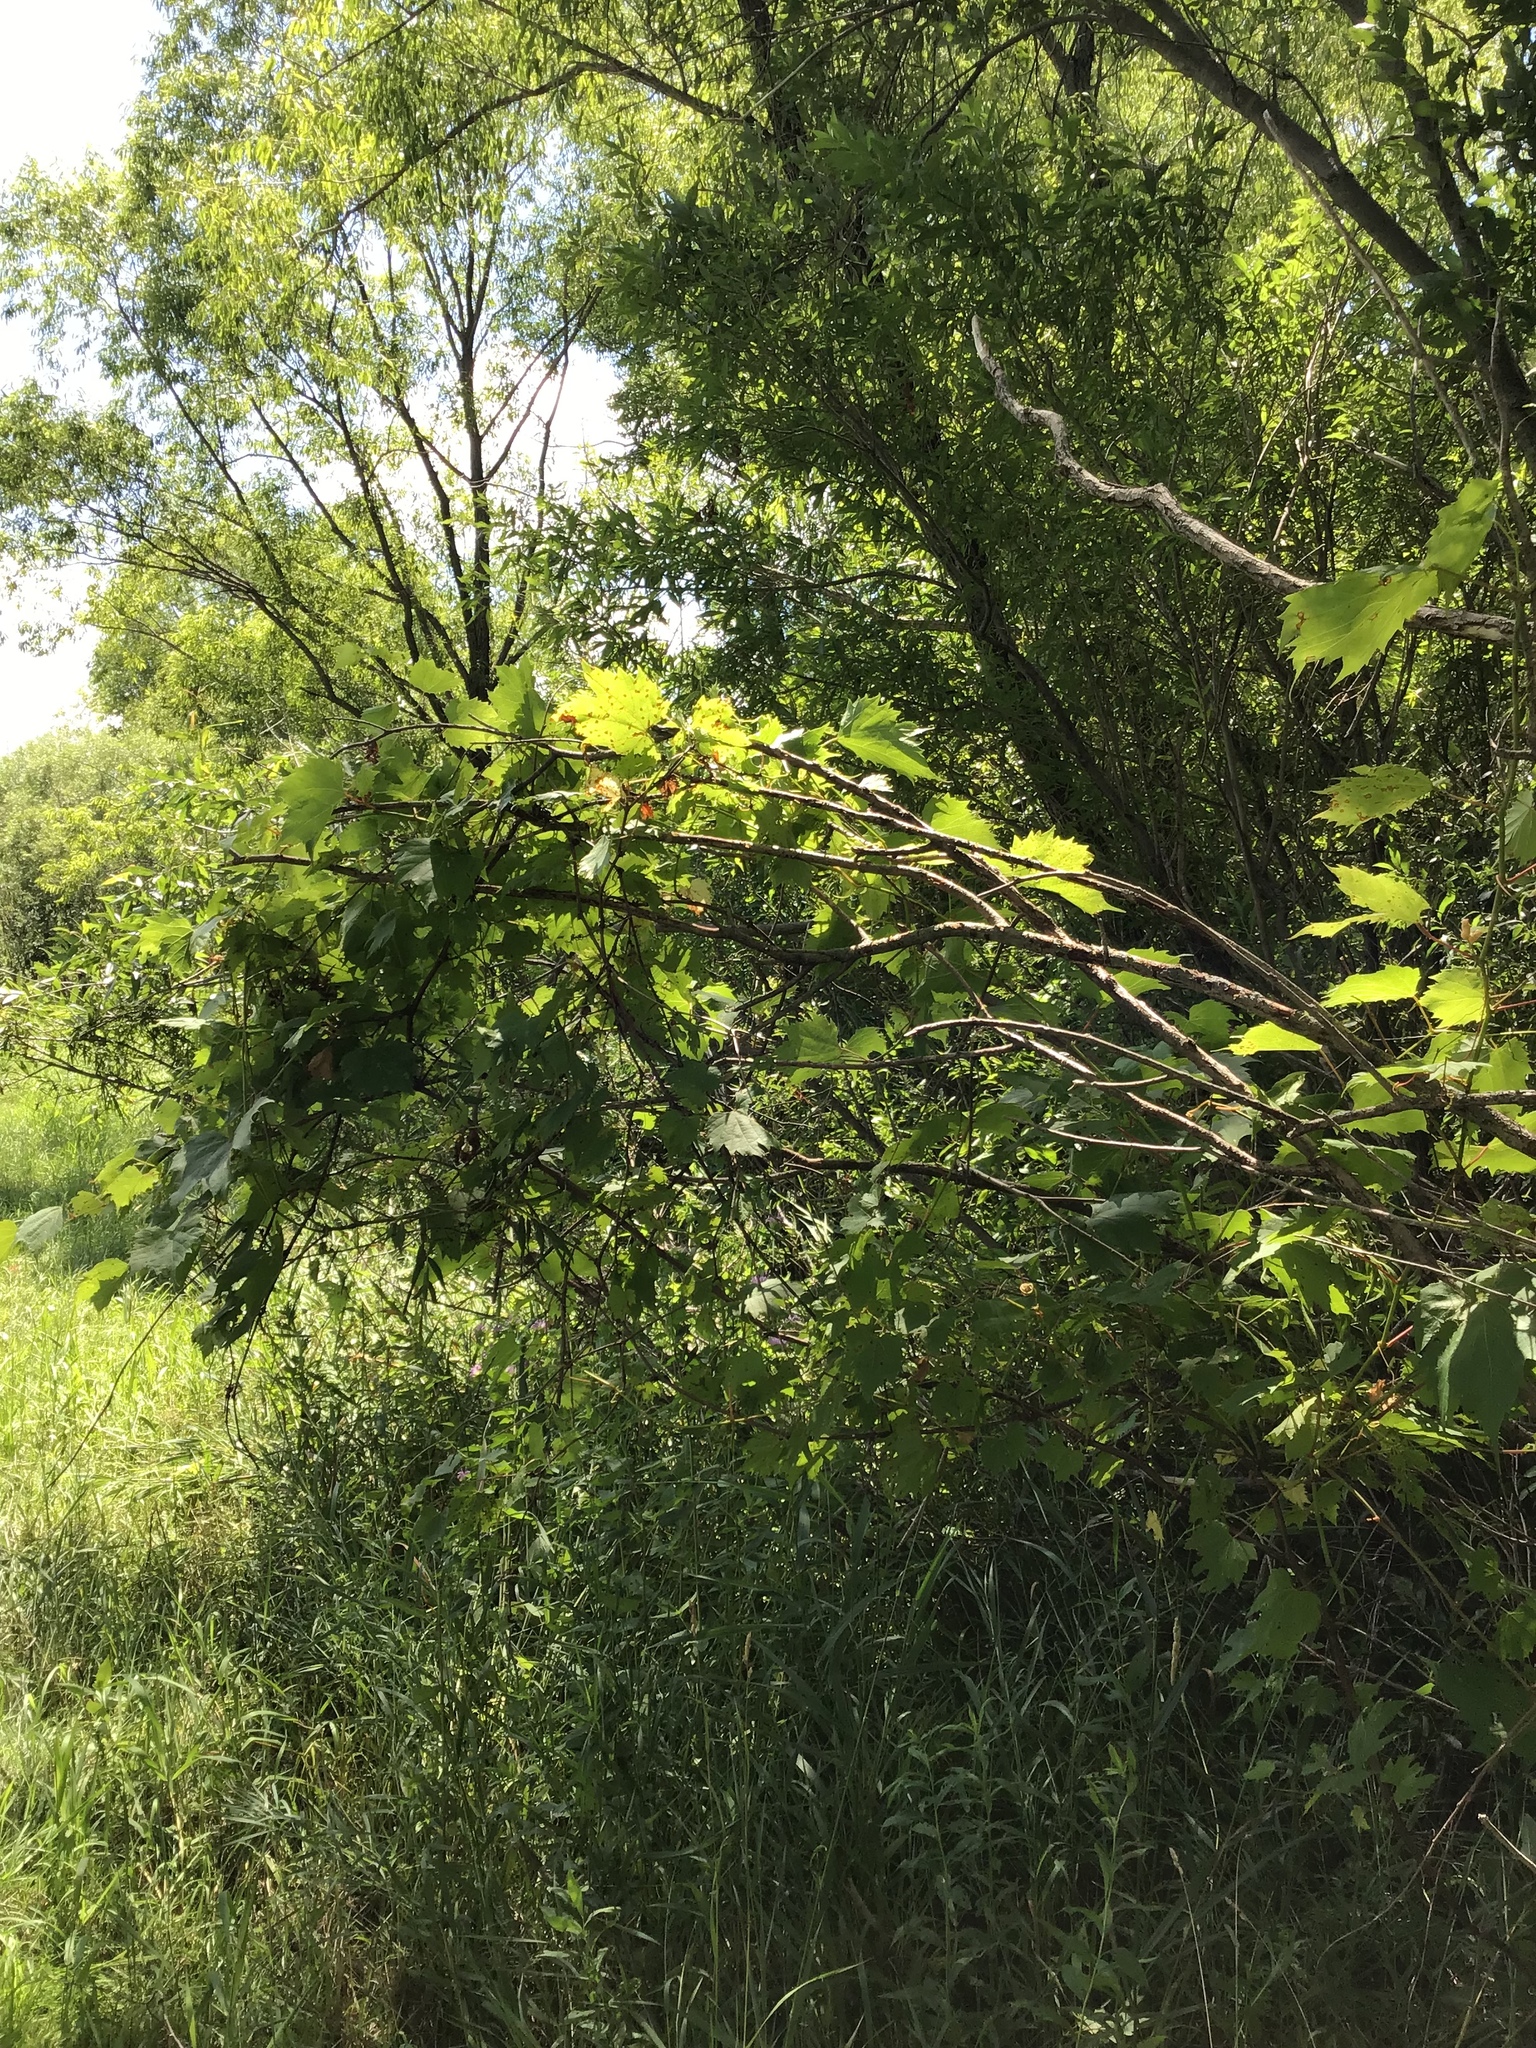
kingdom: Plantae
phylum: Tracheophyta
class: Magnoliopsida
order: Vitales
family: Vitaceae
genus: Vitis
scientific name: Vitis riparia
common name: Frost grape
